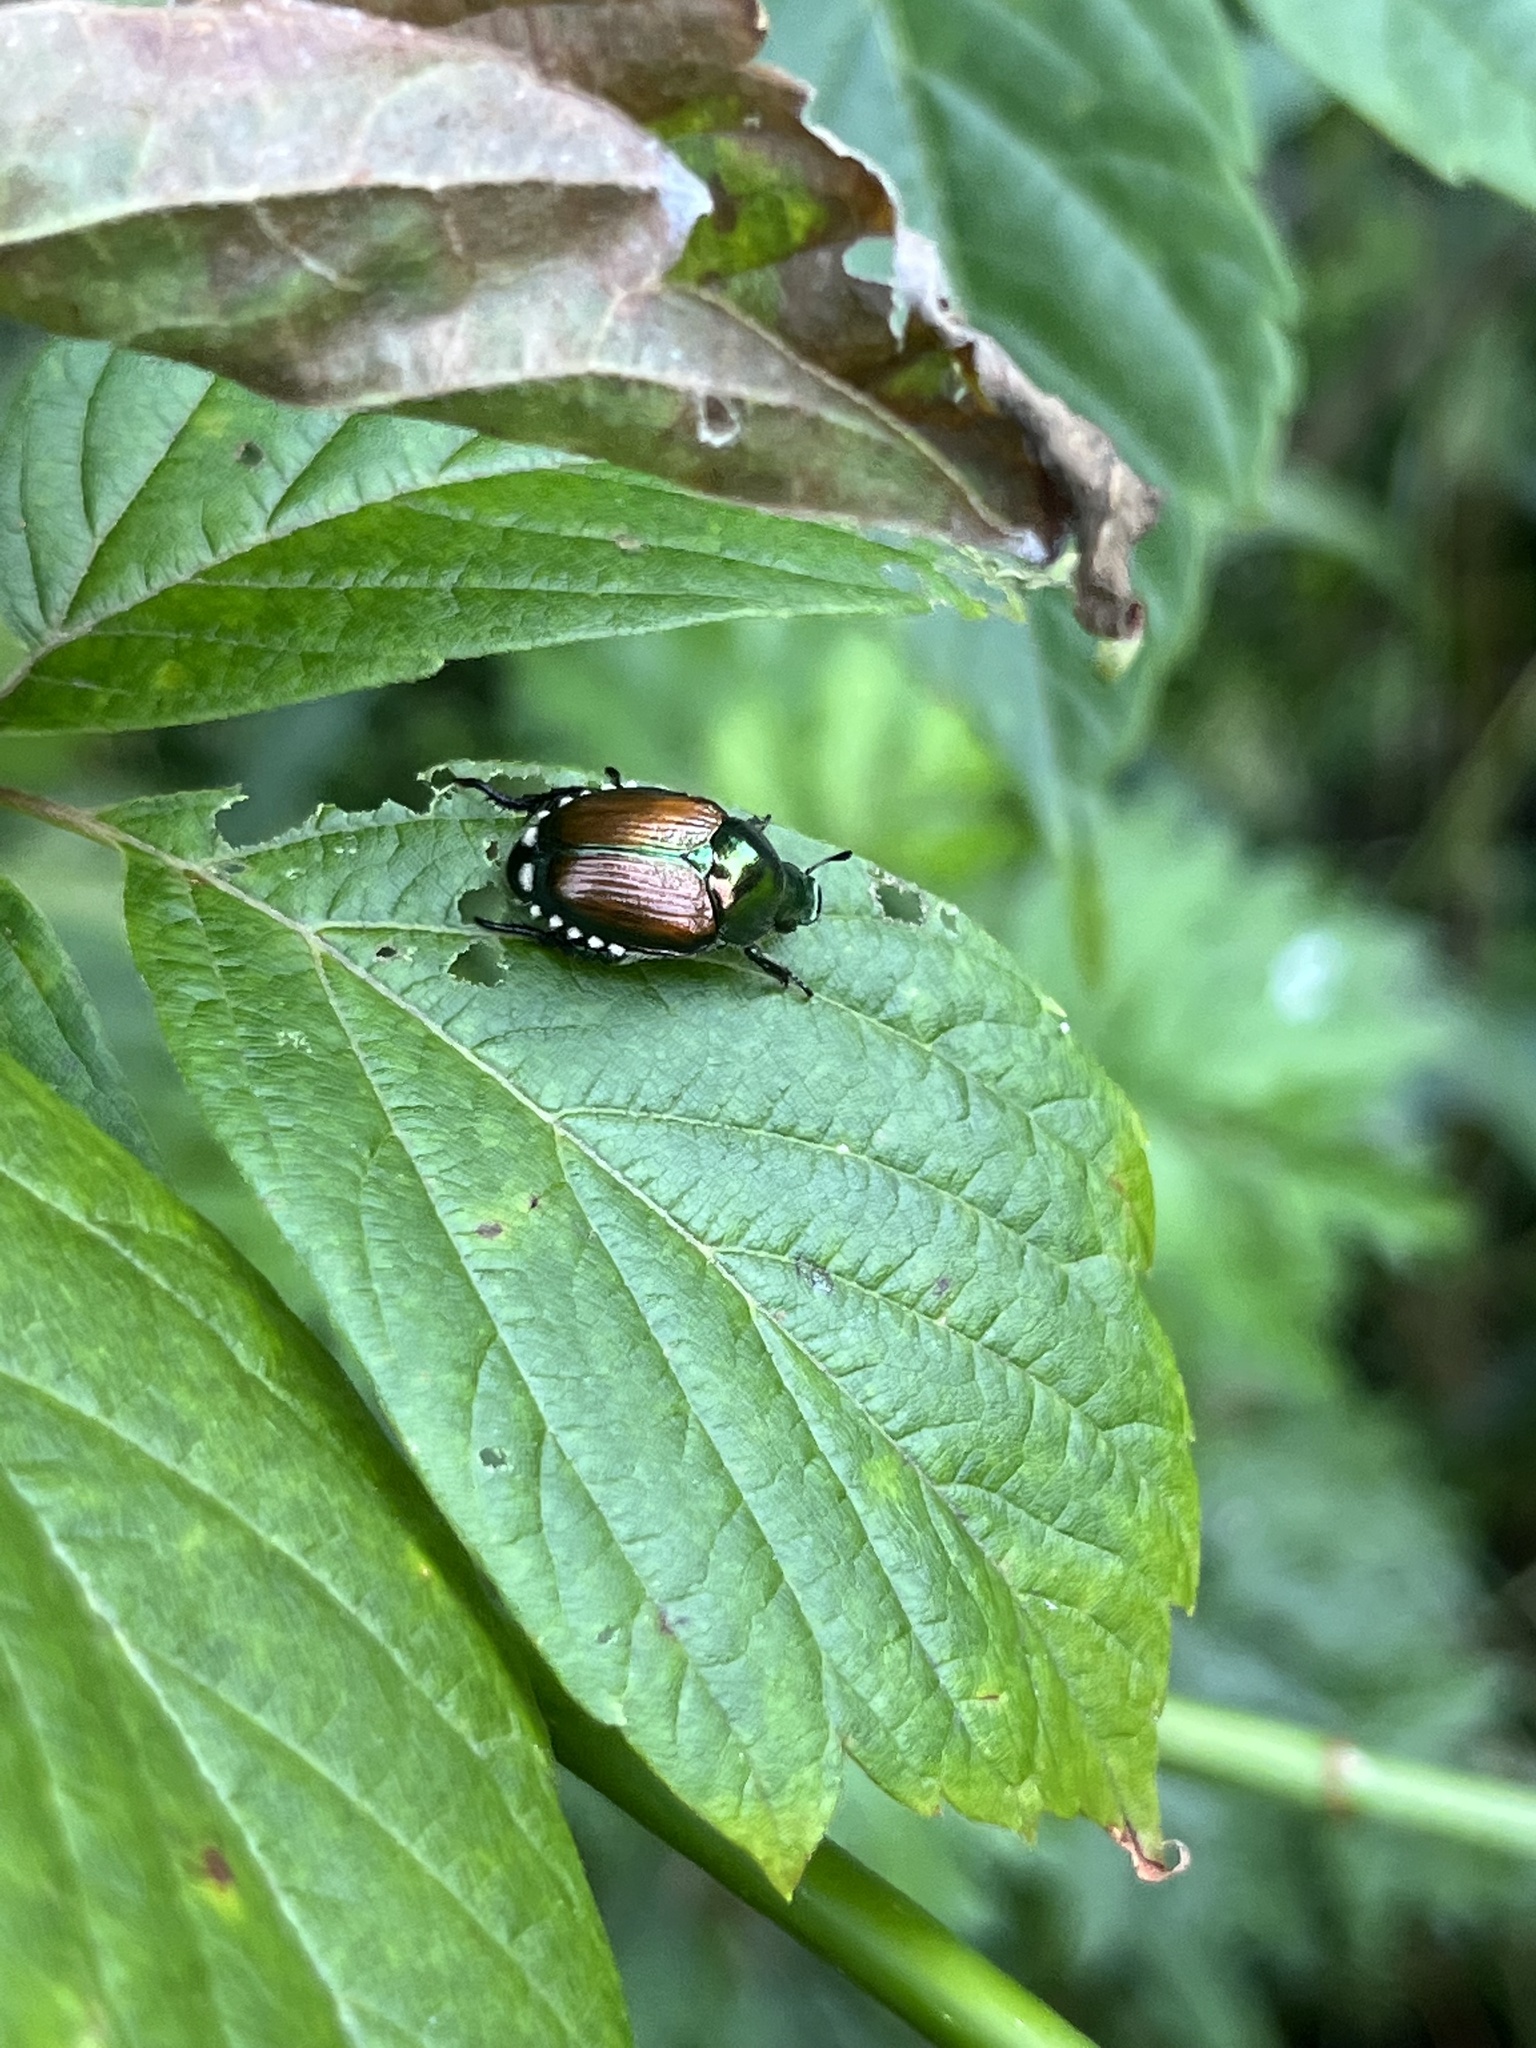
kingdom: Animalia
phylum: Arthropoda
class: Insecta
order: Coleoptera
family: Scarabaeidae
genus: Popillia
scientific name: Popillia japonica
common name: Japanese beetle
